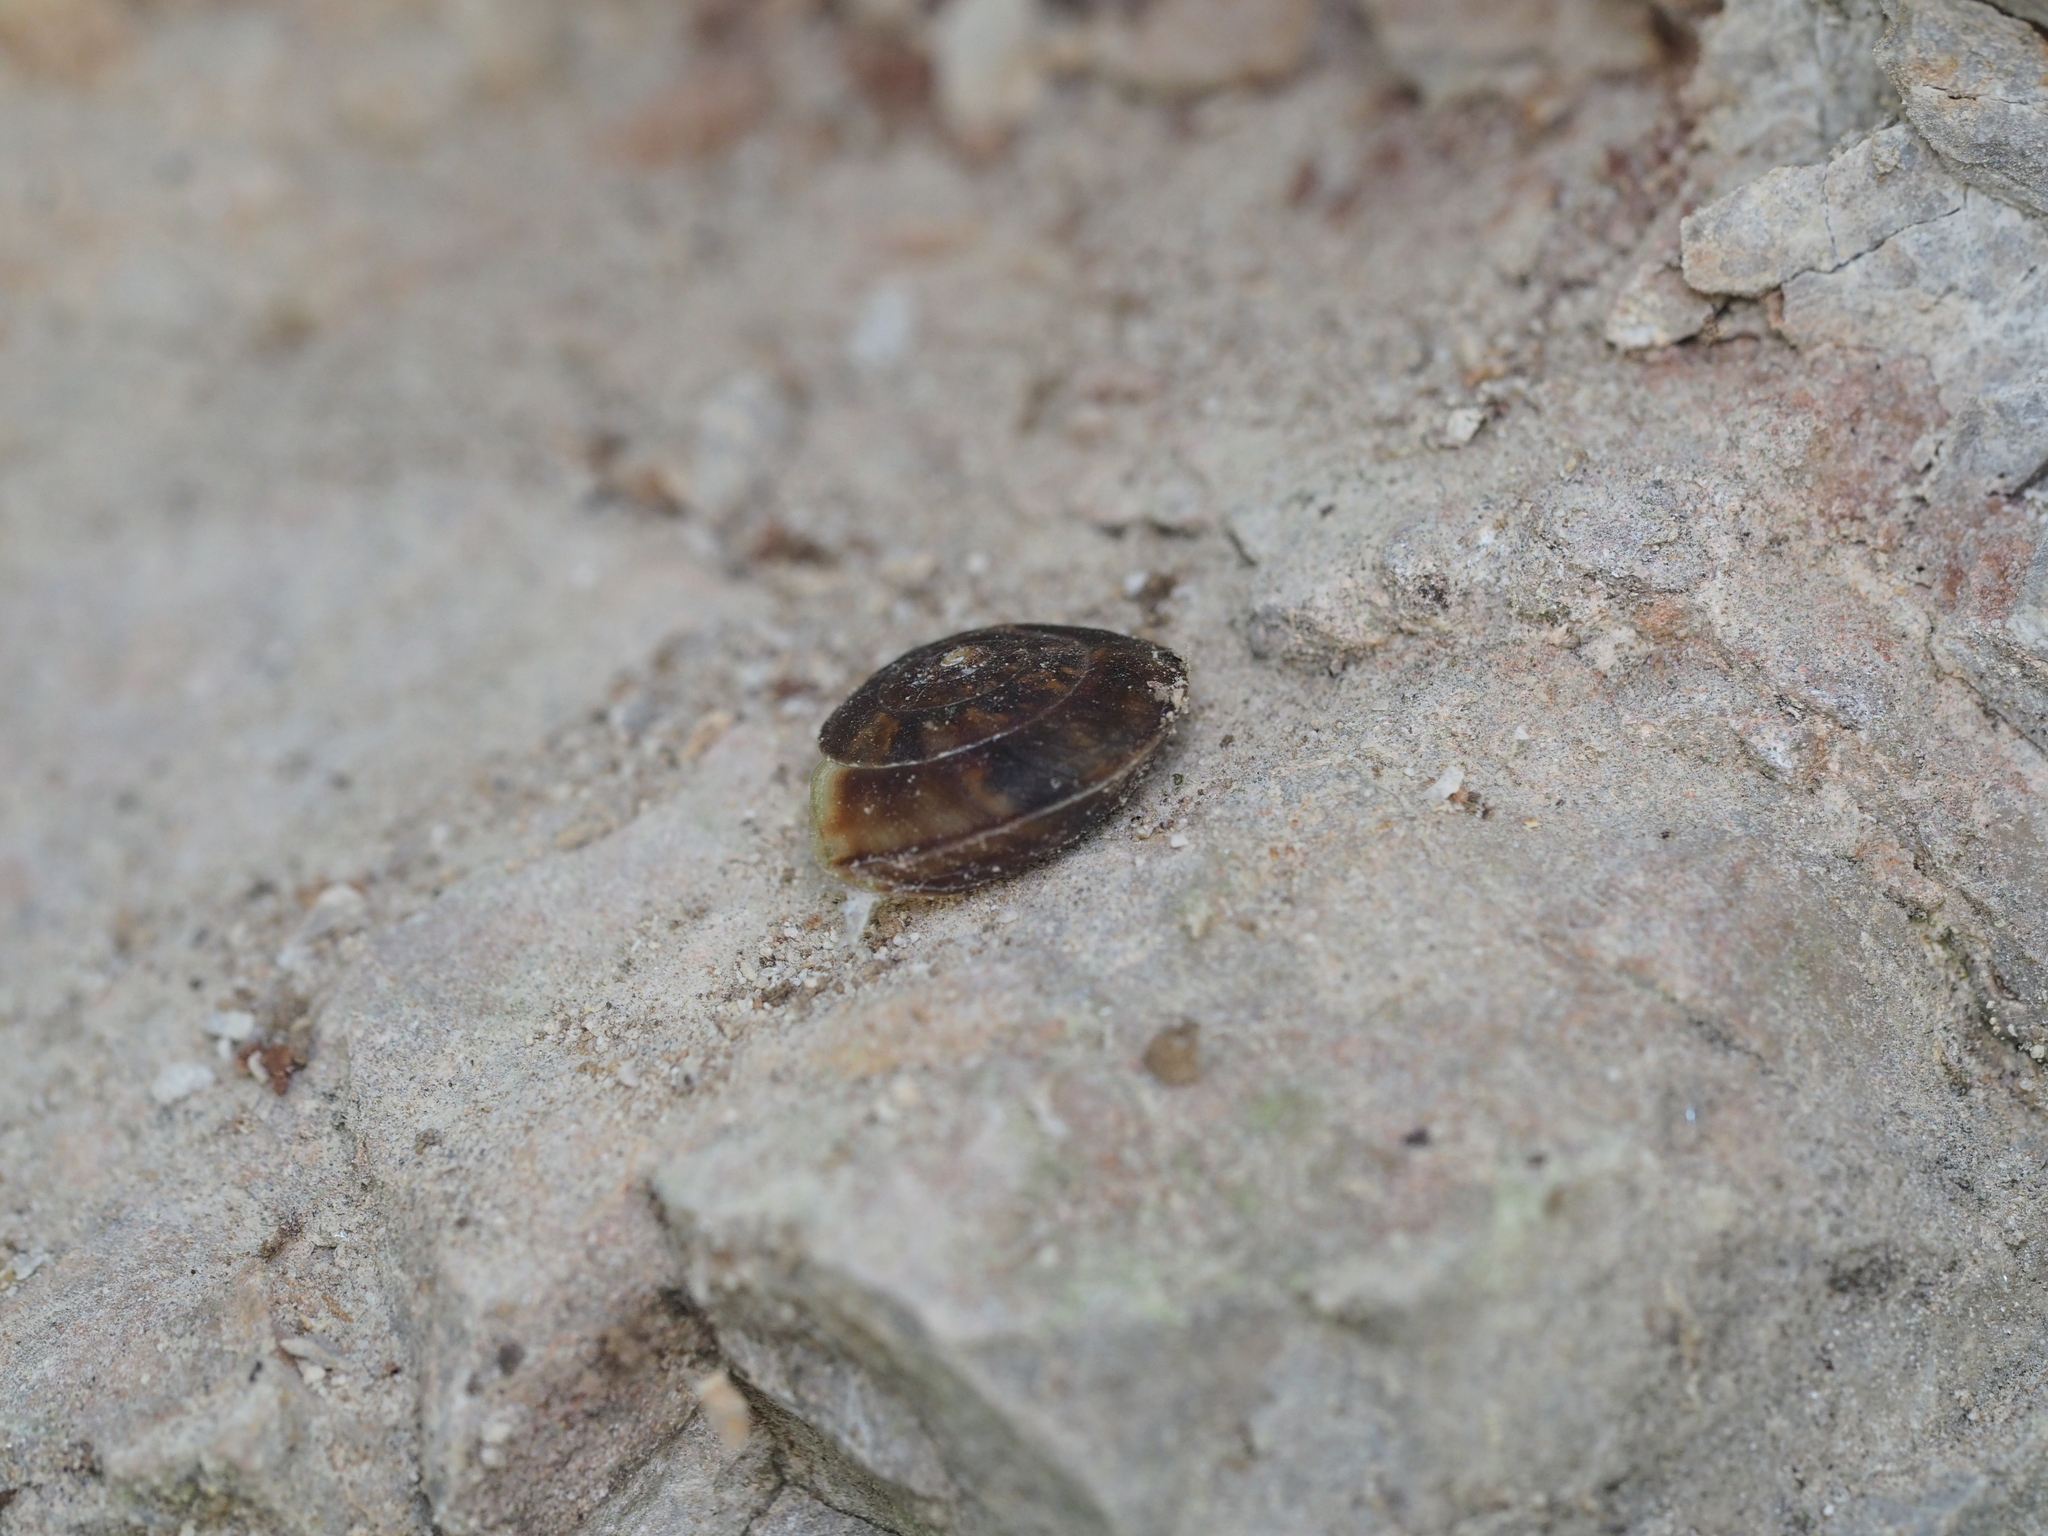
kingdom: Animalia
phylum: Mollusca
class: Gastropoda
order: Stylommatophora
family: Helicidae
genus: Helicigona
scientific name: Helicigona lapicida
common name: Lapidary snail
